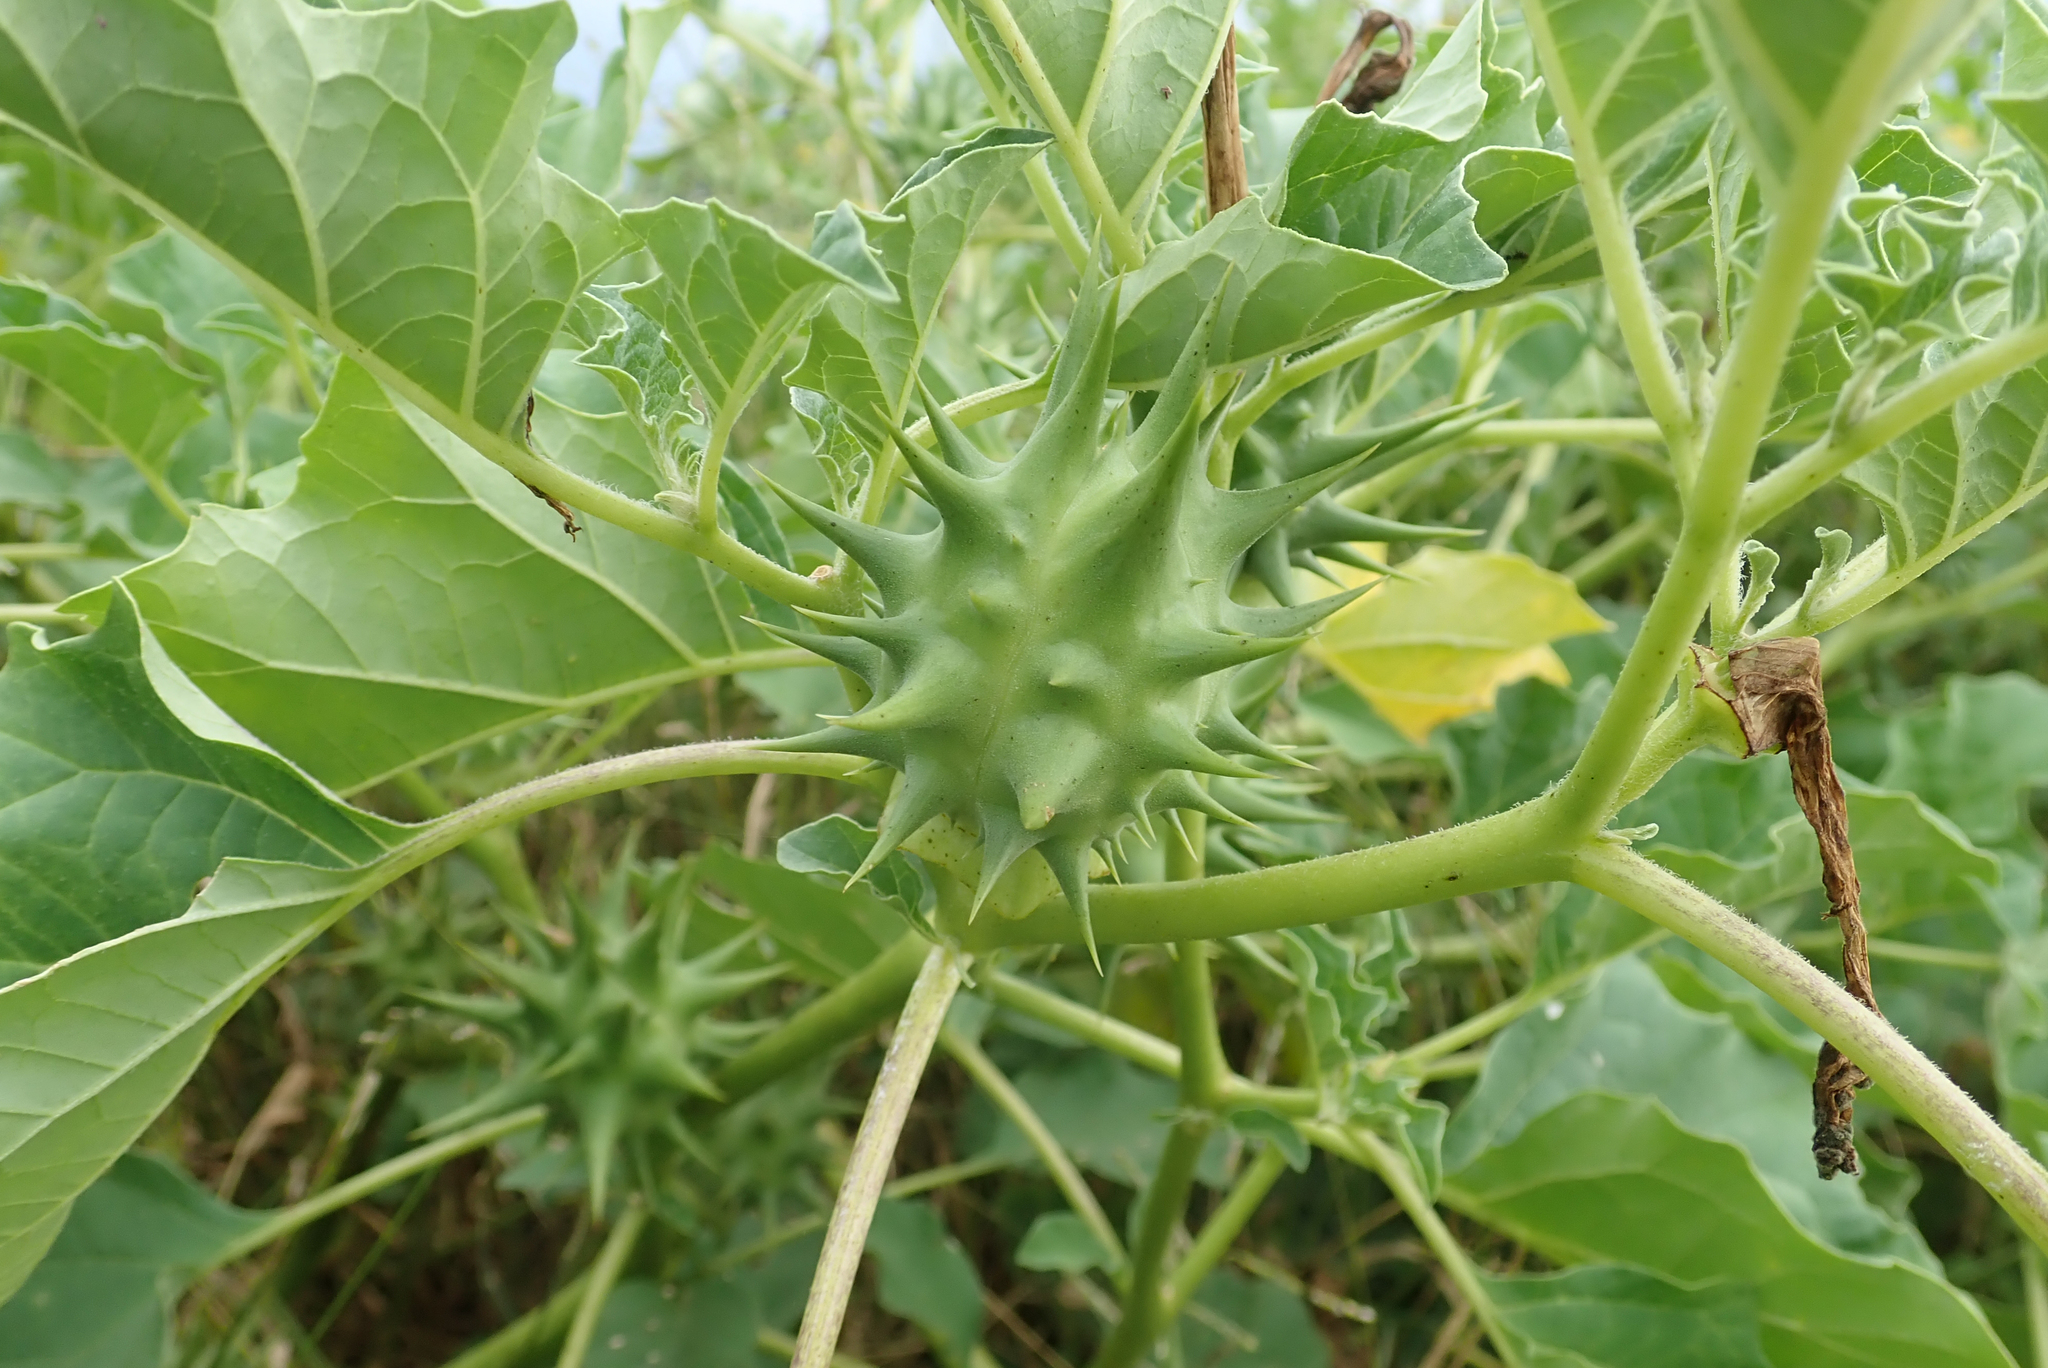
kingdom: Plantae
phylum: Tracheophyta
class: Magnoliopsida
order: Solanales
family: Solanaceae
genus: Datura
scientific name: Datura ferox
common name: Angel's-trumpets
